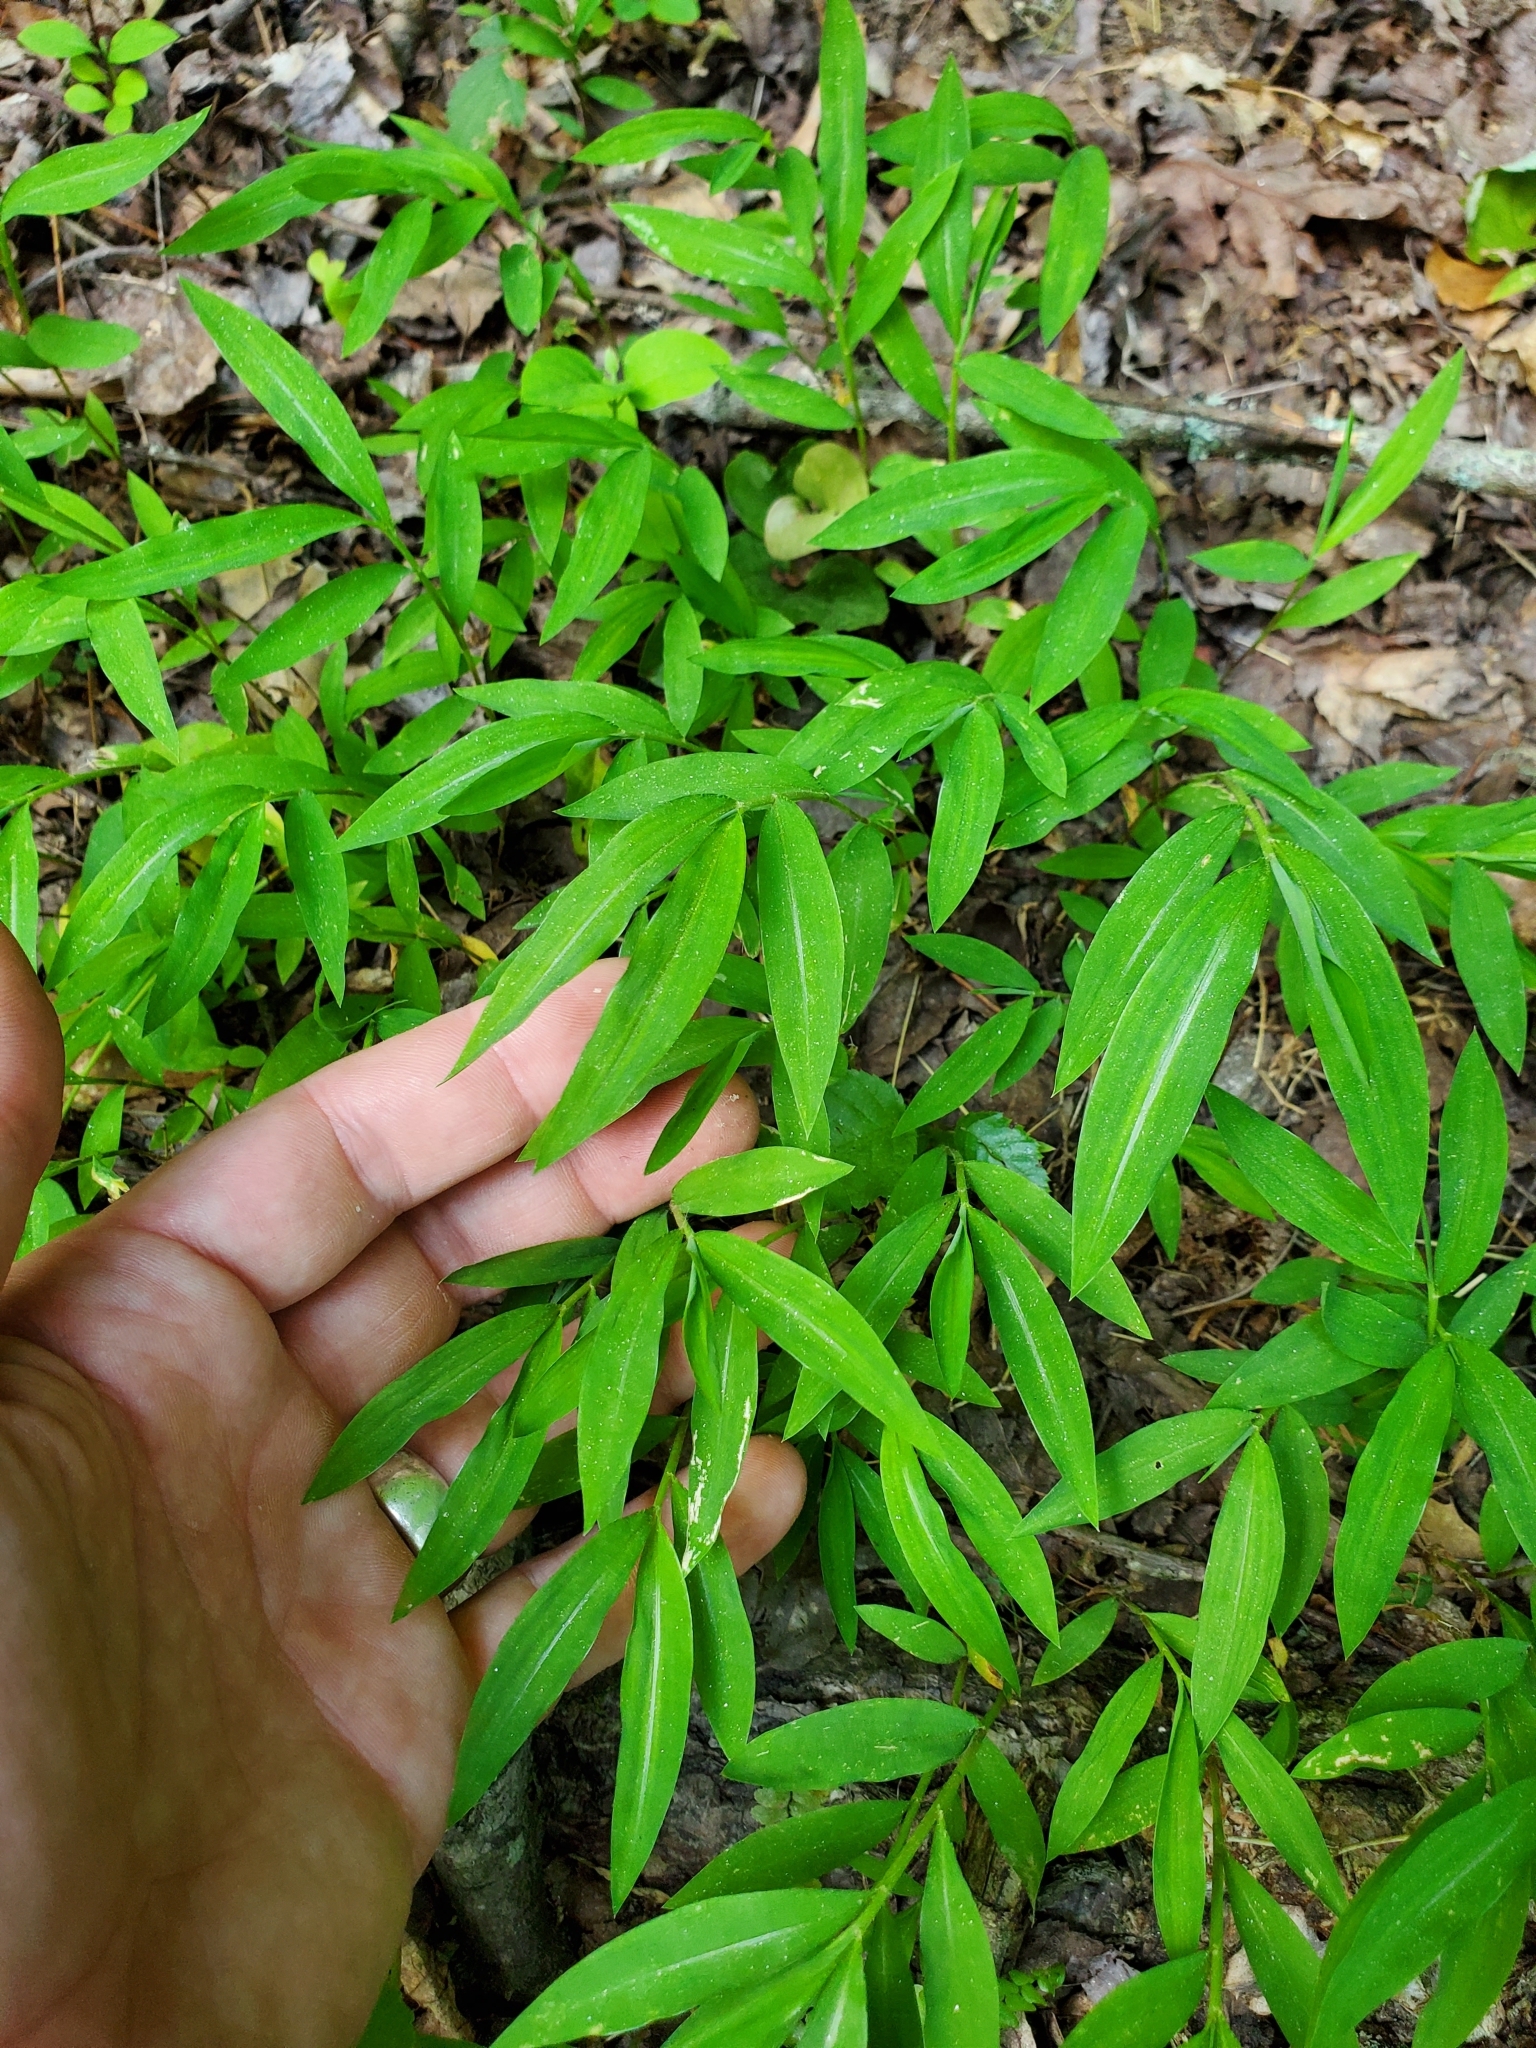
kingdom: Plantae
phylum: Tracheophyta
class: Liliopsida
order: Poales
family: Poaceae
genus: Microstegium
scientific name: Microstegium vimineum
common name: Japanese stiltgrass
